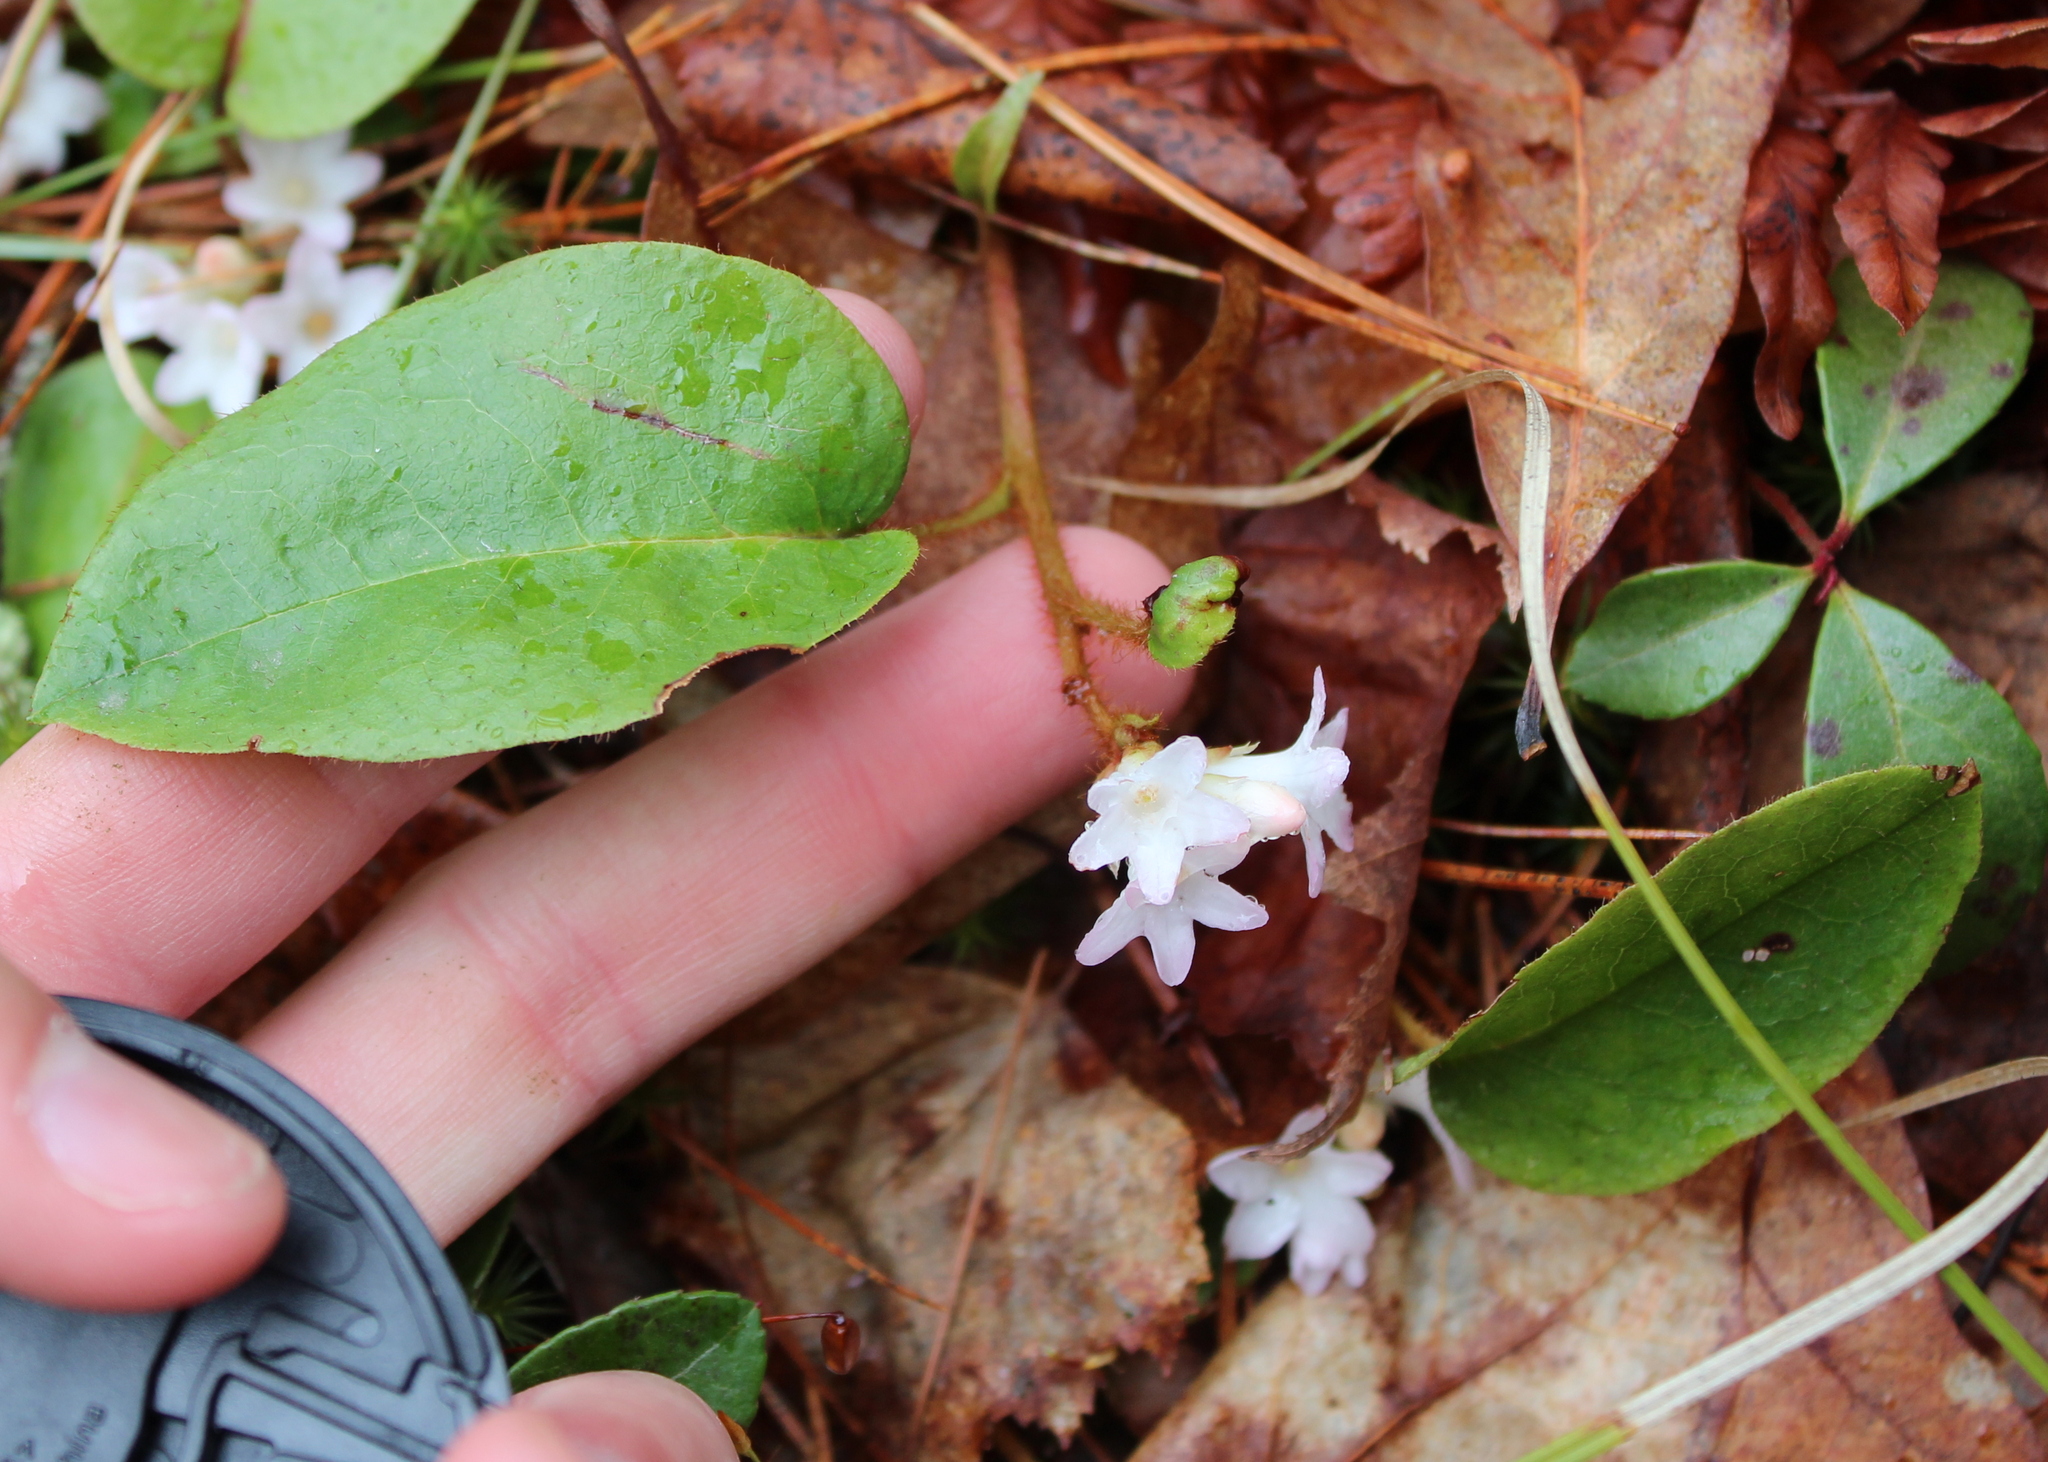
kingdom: Plantae
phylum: Tracheophyta
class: Magnoliopsida
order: Ericales
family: Ericaceae
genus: Epigaea
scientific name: Epigaea repens
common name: Gravelroot
